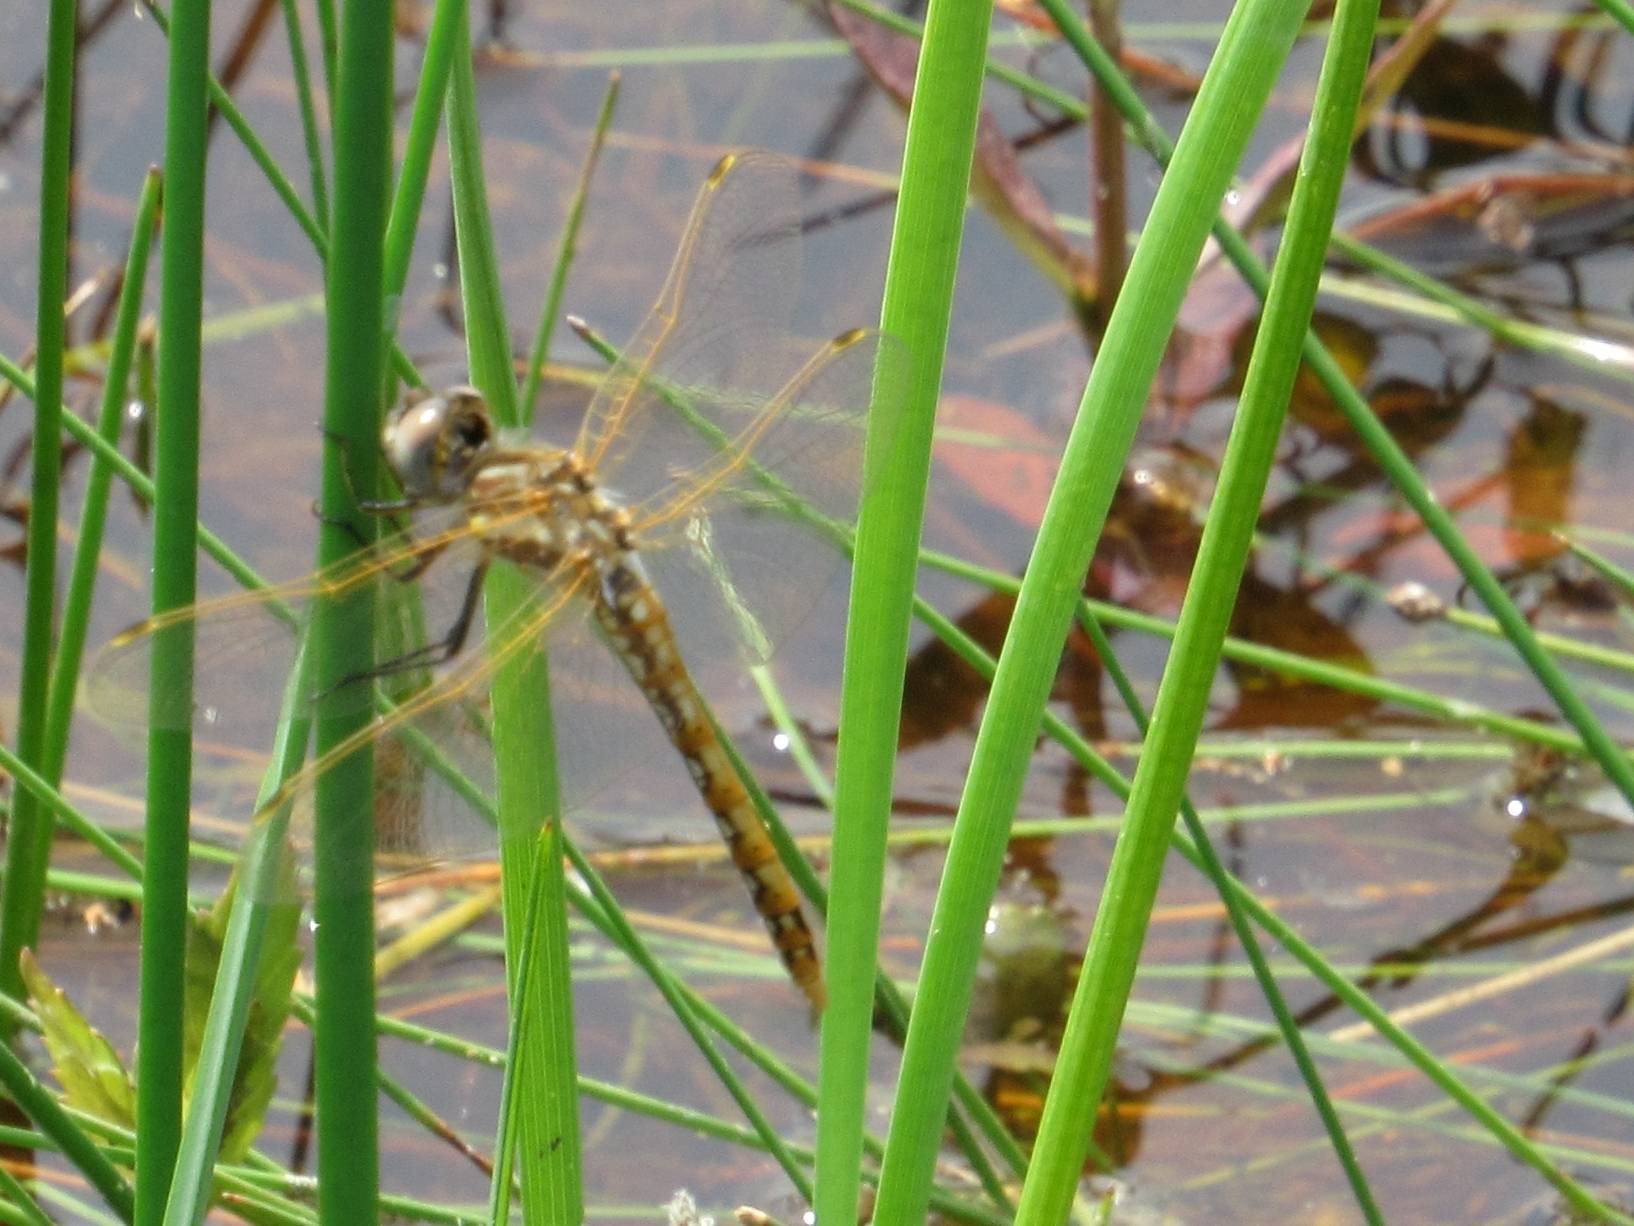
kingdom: Animalia
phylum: Arthropoda
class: Insecta
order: Odonata
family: Libellulidae
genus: Sympetrum
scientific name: Sympetrum corruptum
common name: Variegated meadowhawk
